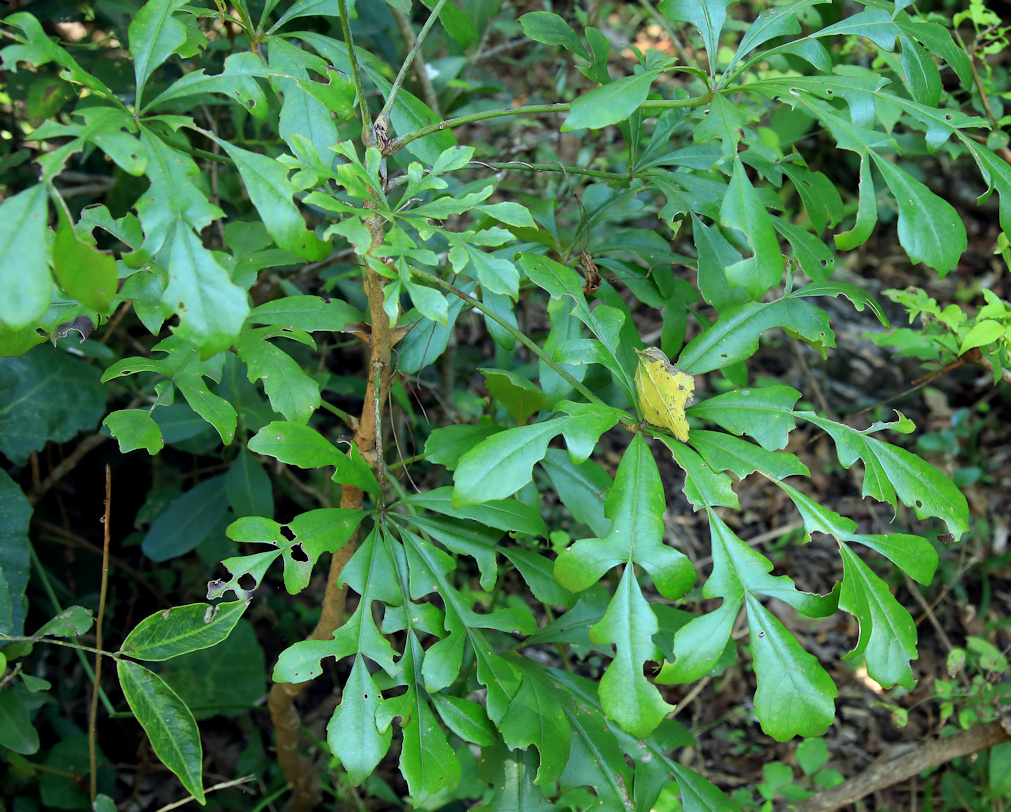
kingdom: Plantae
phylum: Tracheophyta
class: Magnoliopsida
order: Apiales
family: Araliaceae
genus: Cussonia
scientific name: Cussonia spicata
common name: Common cabbagetree
